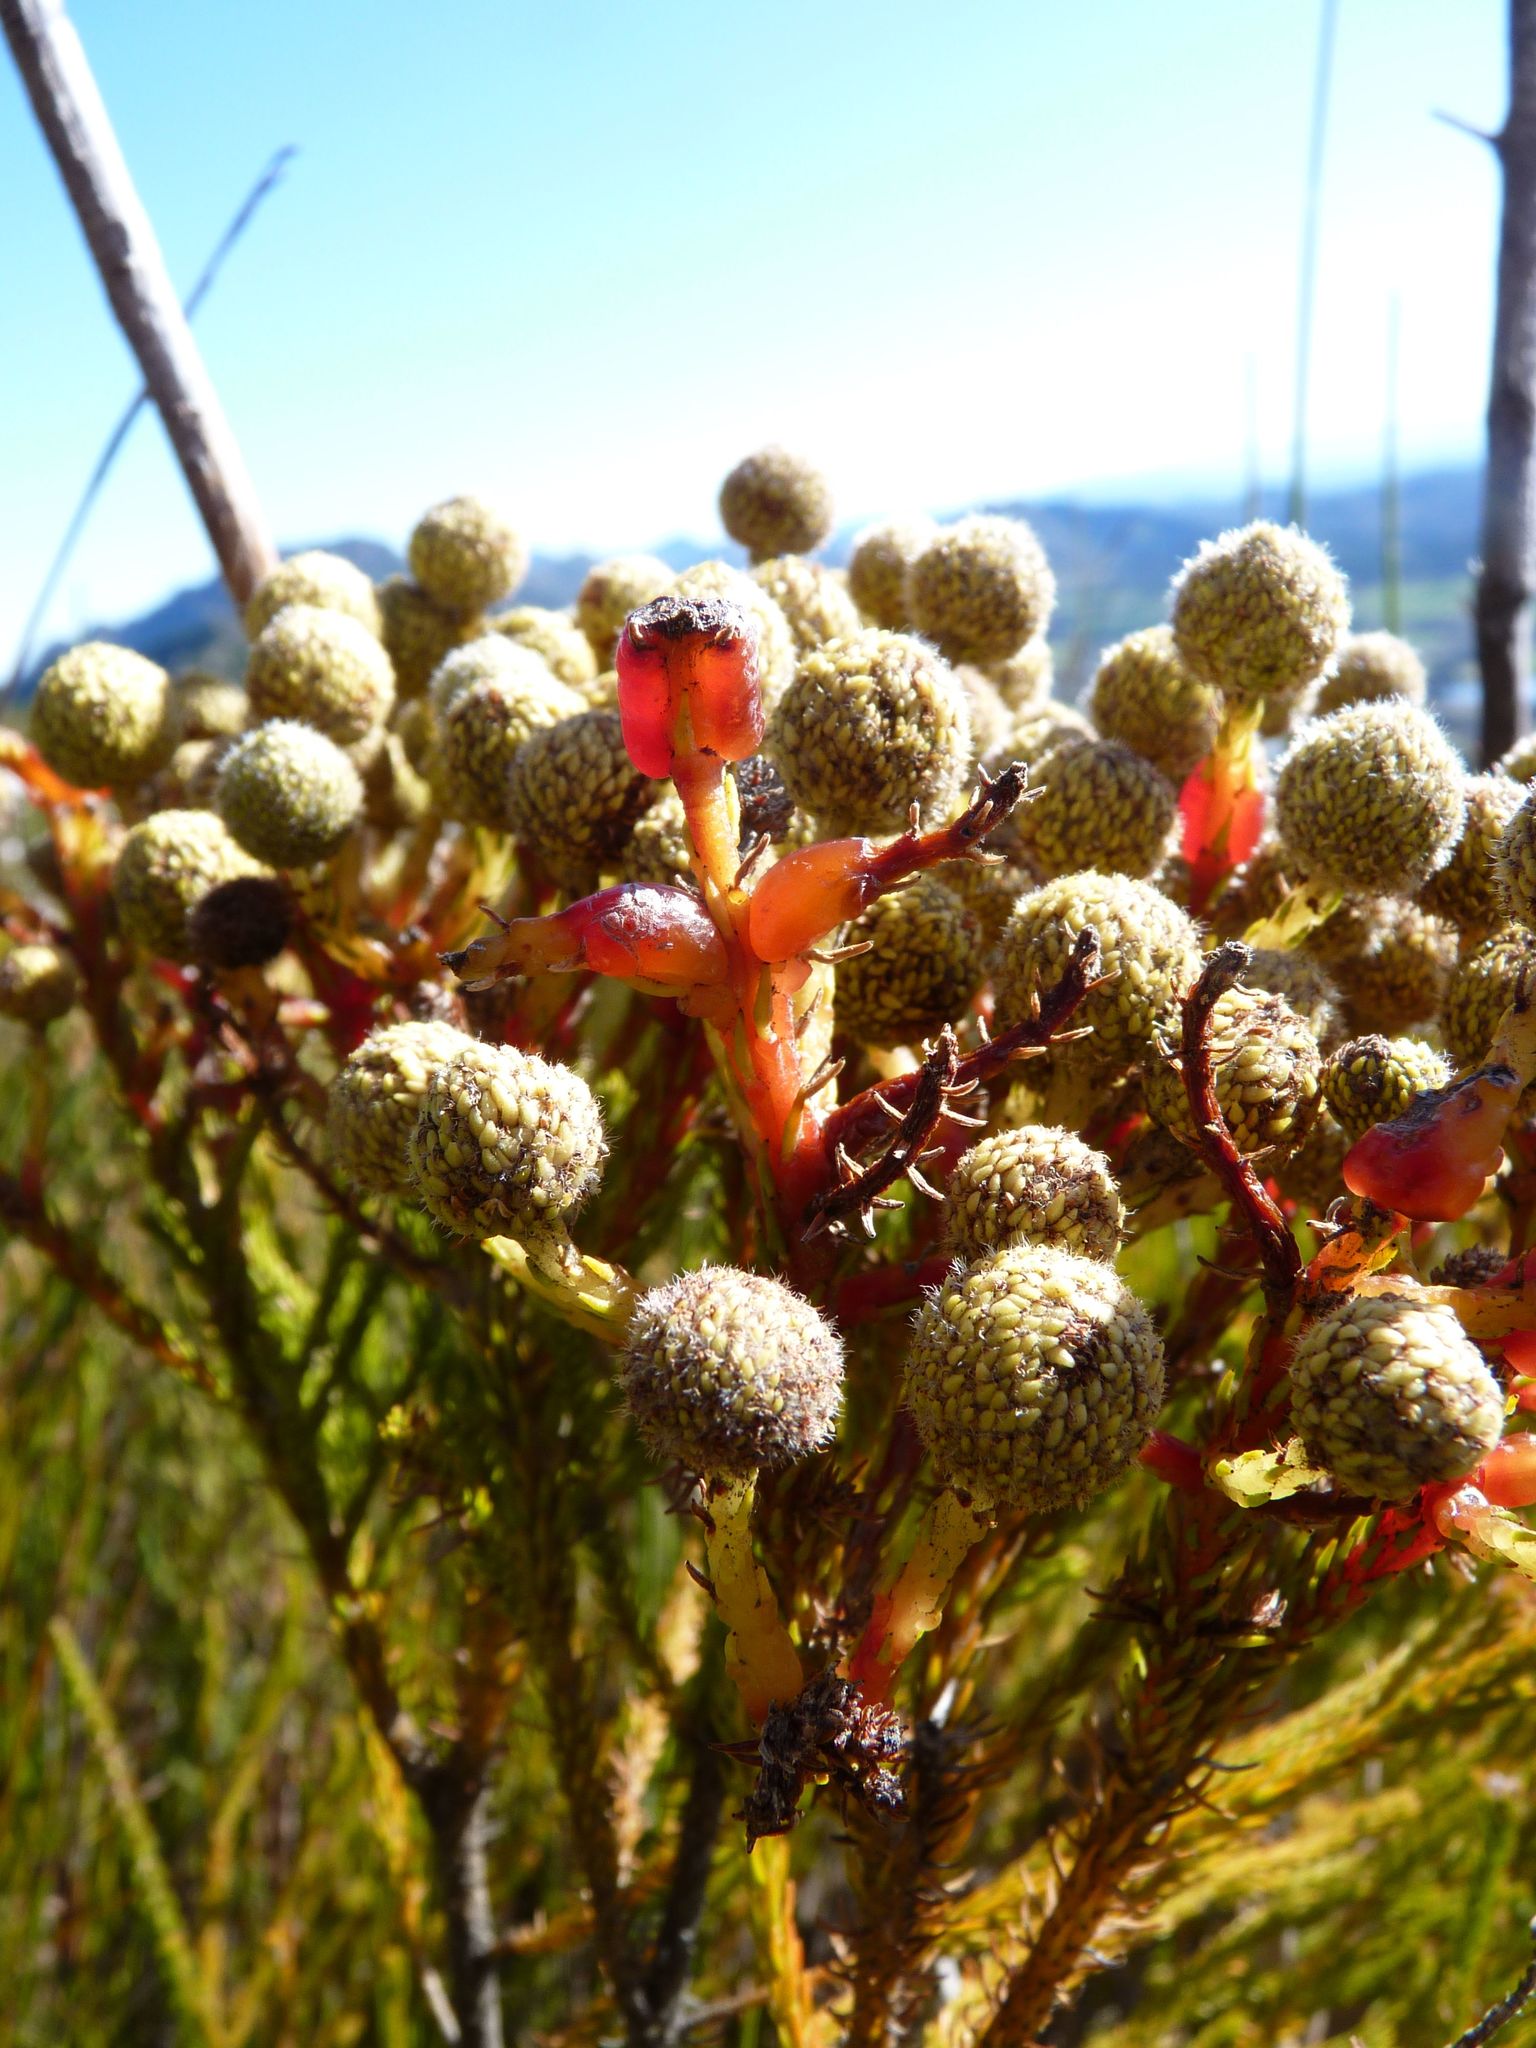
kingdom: Plantae
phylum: Tracheophyta
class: Magnoliopsida
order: Bruniales
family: Bruniaceae
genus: Berzelia
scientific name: Berzelia abrotanoides
